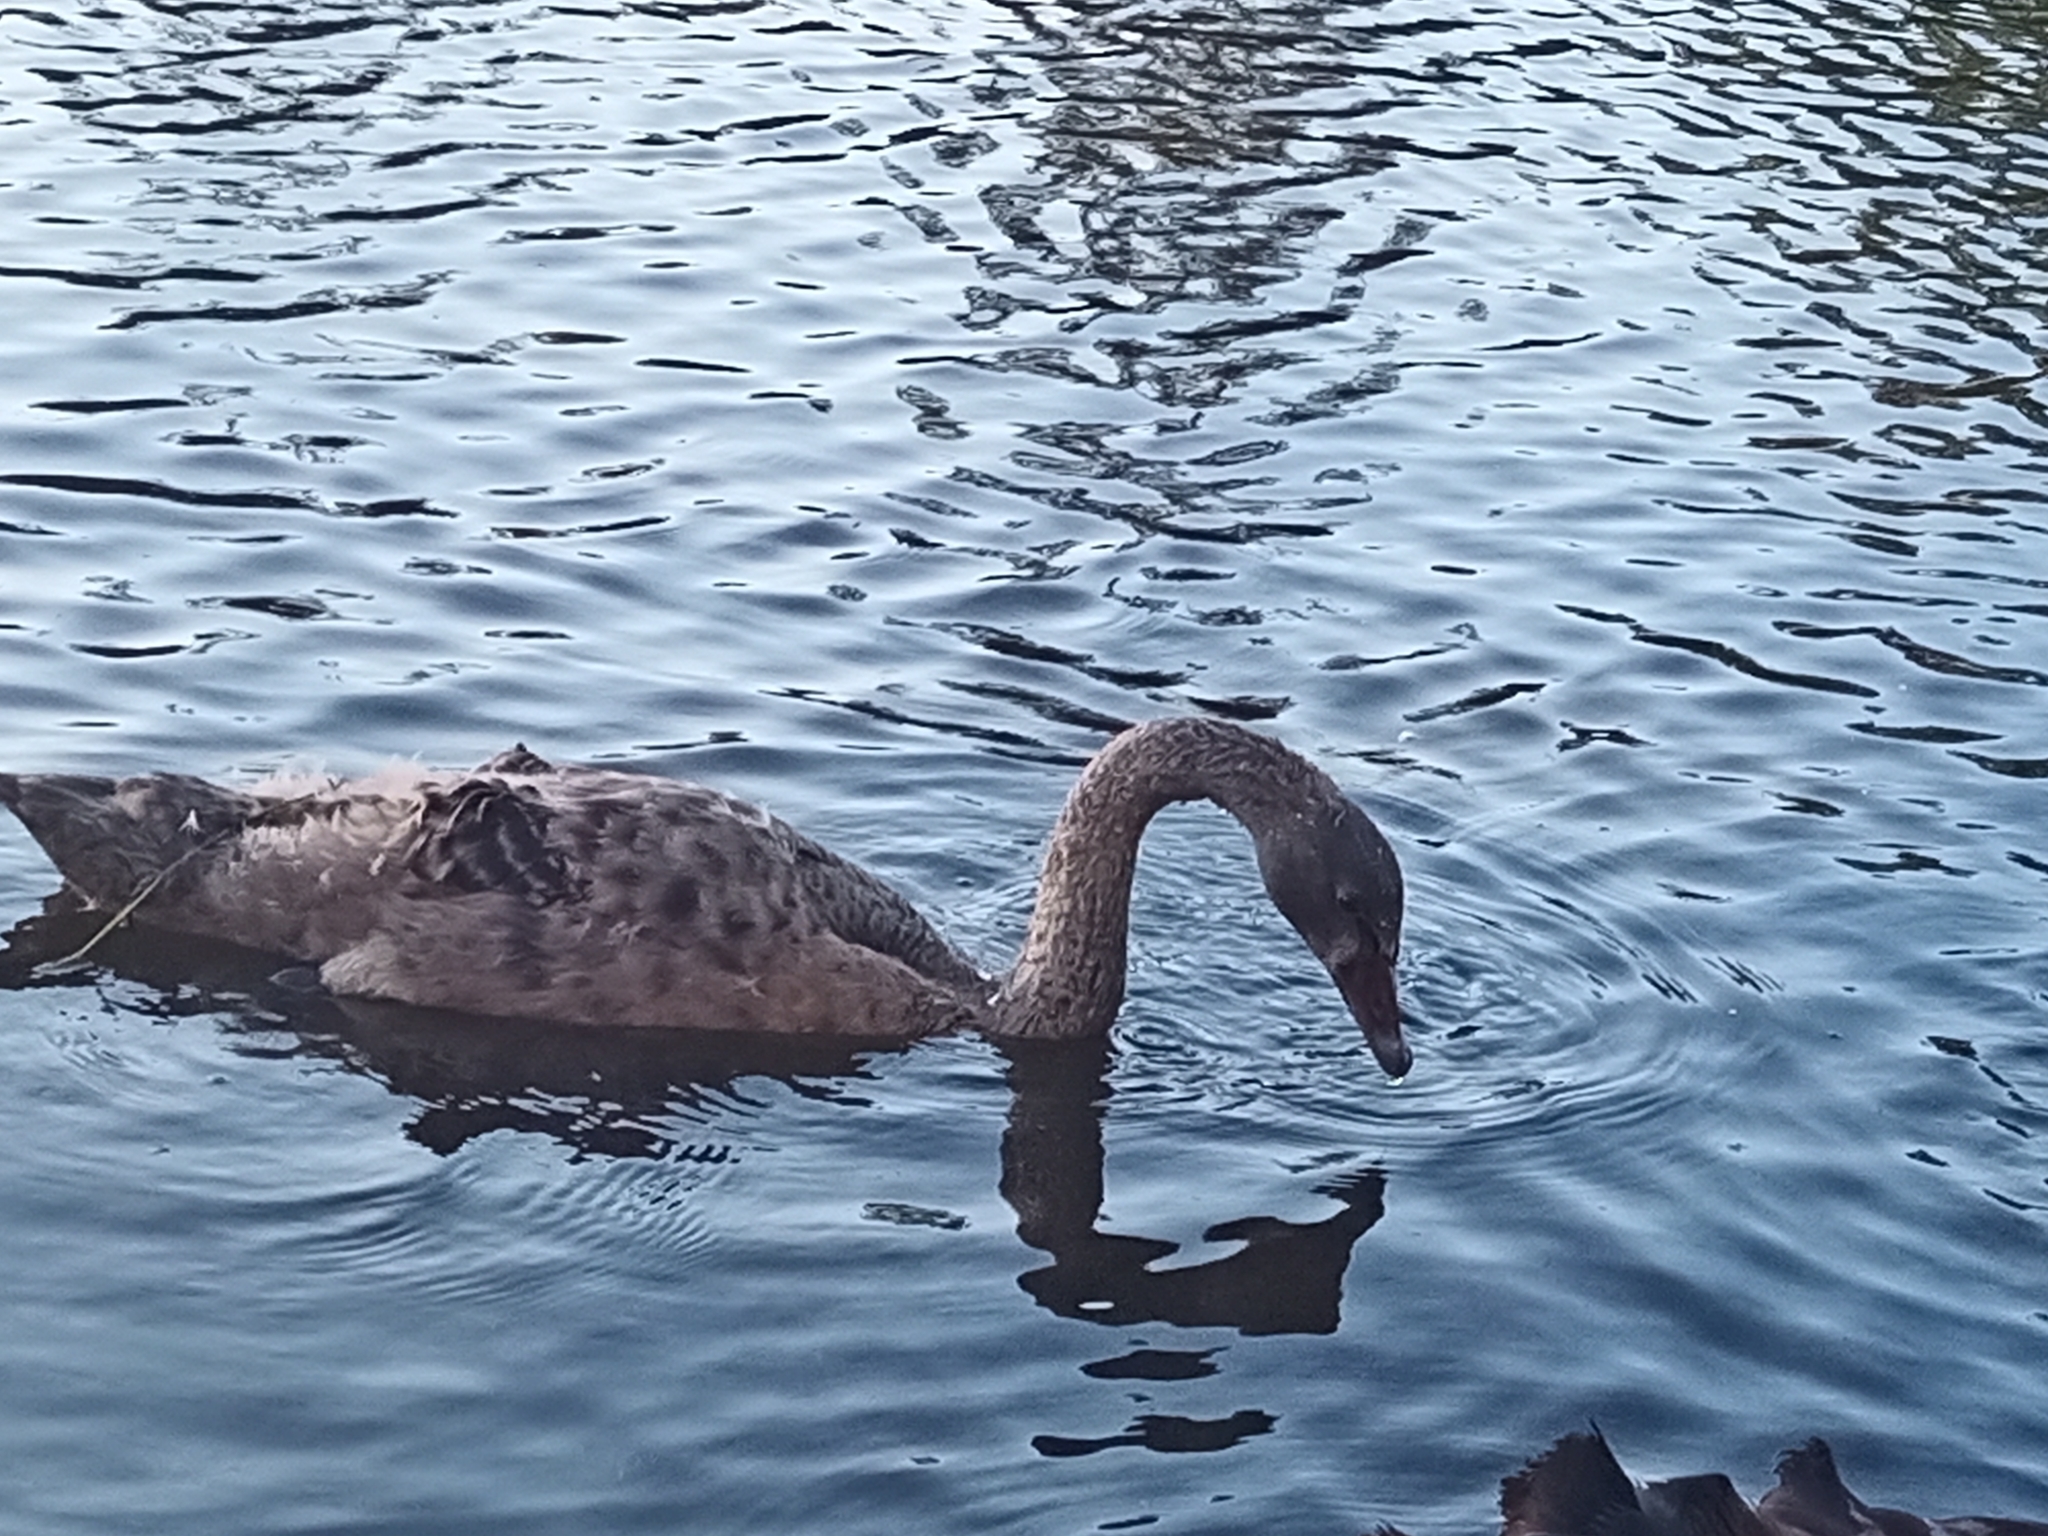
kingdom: Animalia
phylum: Chordata
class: Aves
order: Anseriformes
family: Anatidae
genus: Cygnus
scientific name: Cygnus atratus
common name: Black swan
